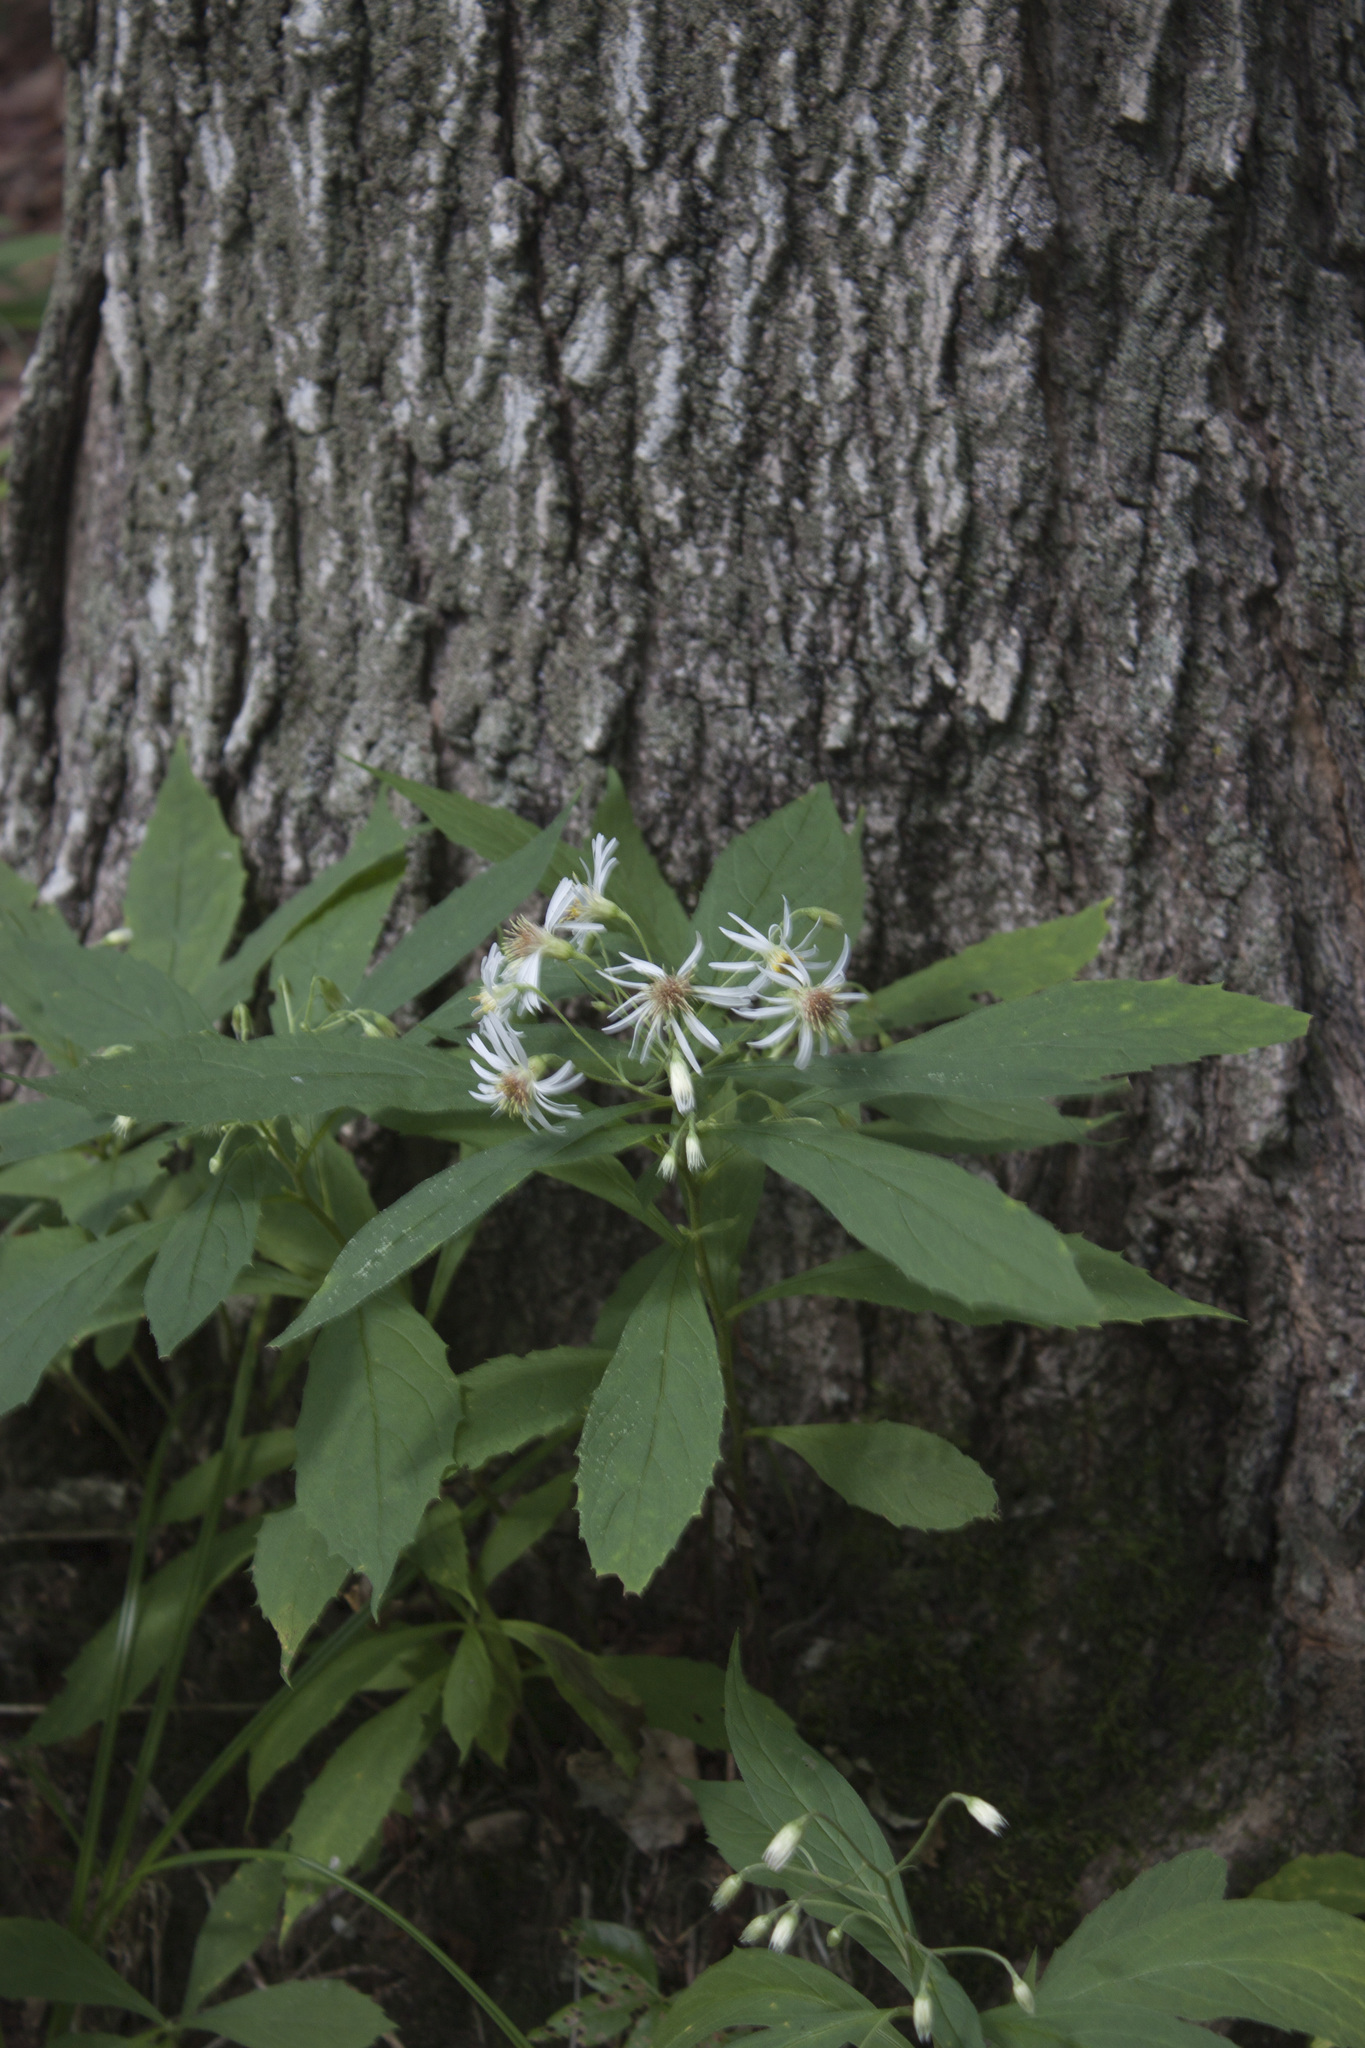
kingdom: Plantae
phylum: Tracheophyta
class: Magnoliopsida
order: Asterales
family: Asteraceae
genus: Oclemena
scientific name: Oclemena acuminata
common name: Mountain aster
